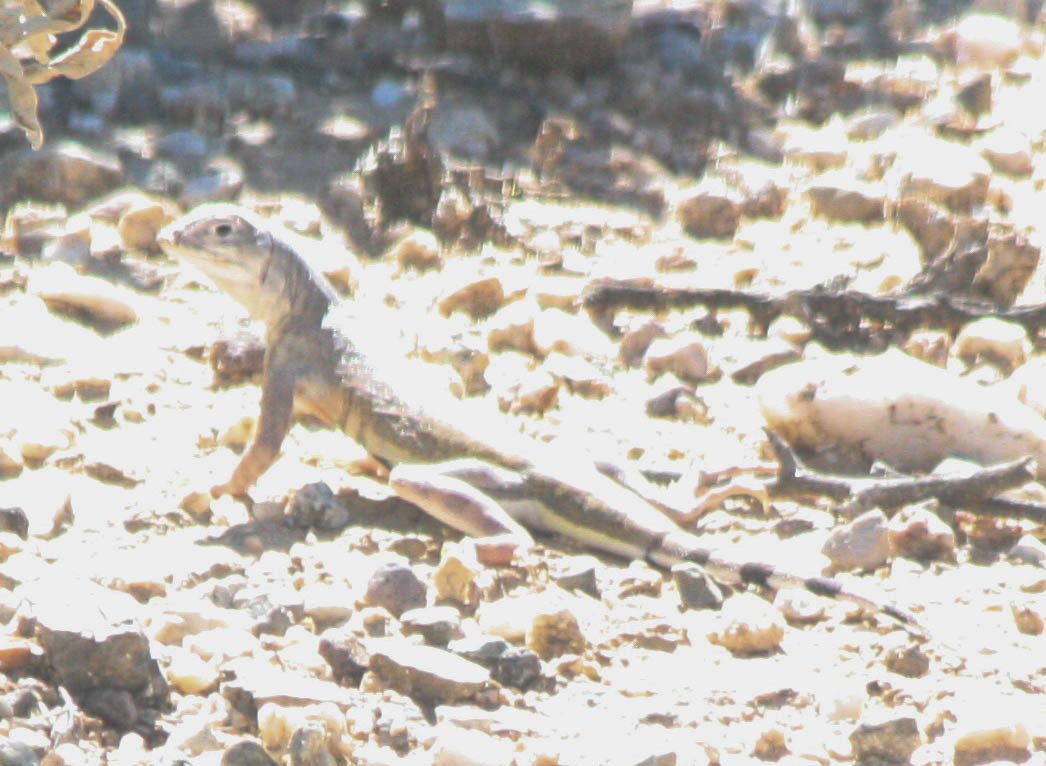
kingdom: Animalia
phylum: Chordata
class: Squamata
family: Phrynosomatidae
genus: Callisaurus
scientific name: Callisaurus draconoides
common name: Zebra-tailed lizard
